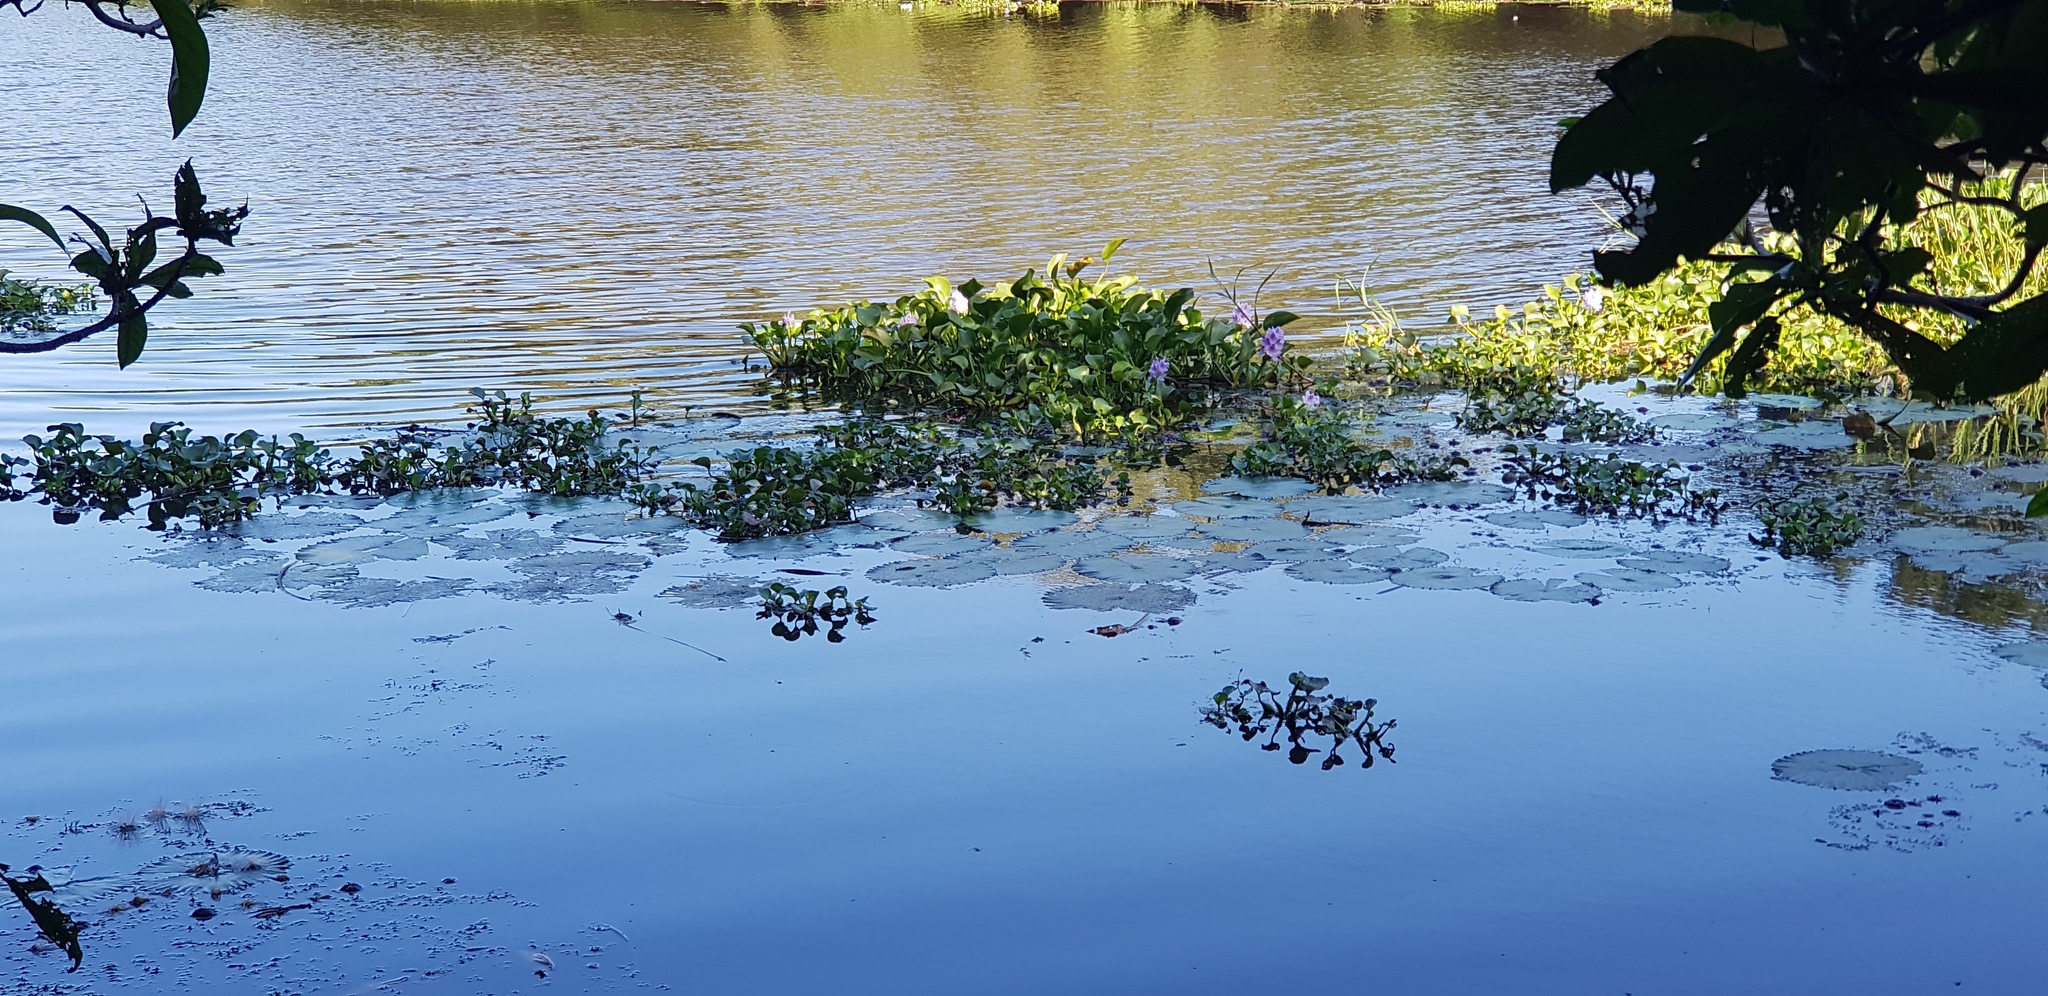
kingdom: Plantae
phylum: Tracheophyta
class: Liliopsida
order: Commelinales
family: Pontederiaceae
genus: Pontederia
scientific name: Pontederia crassipes
